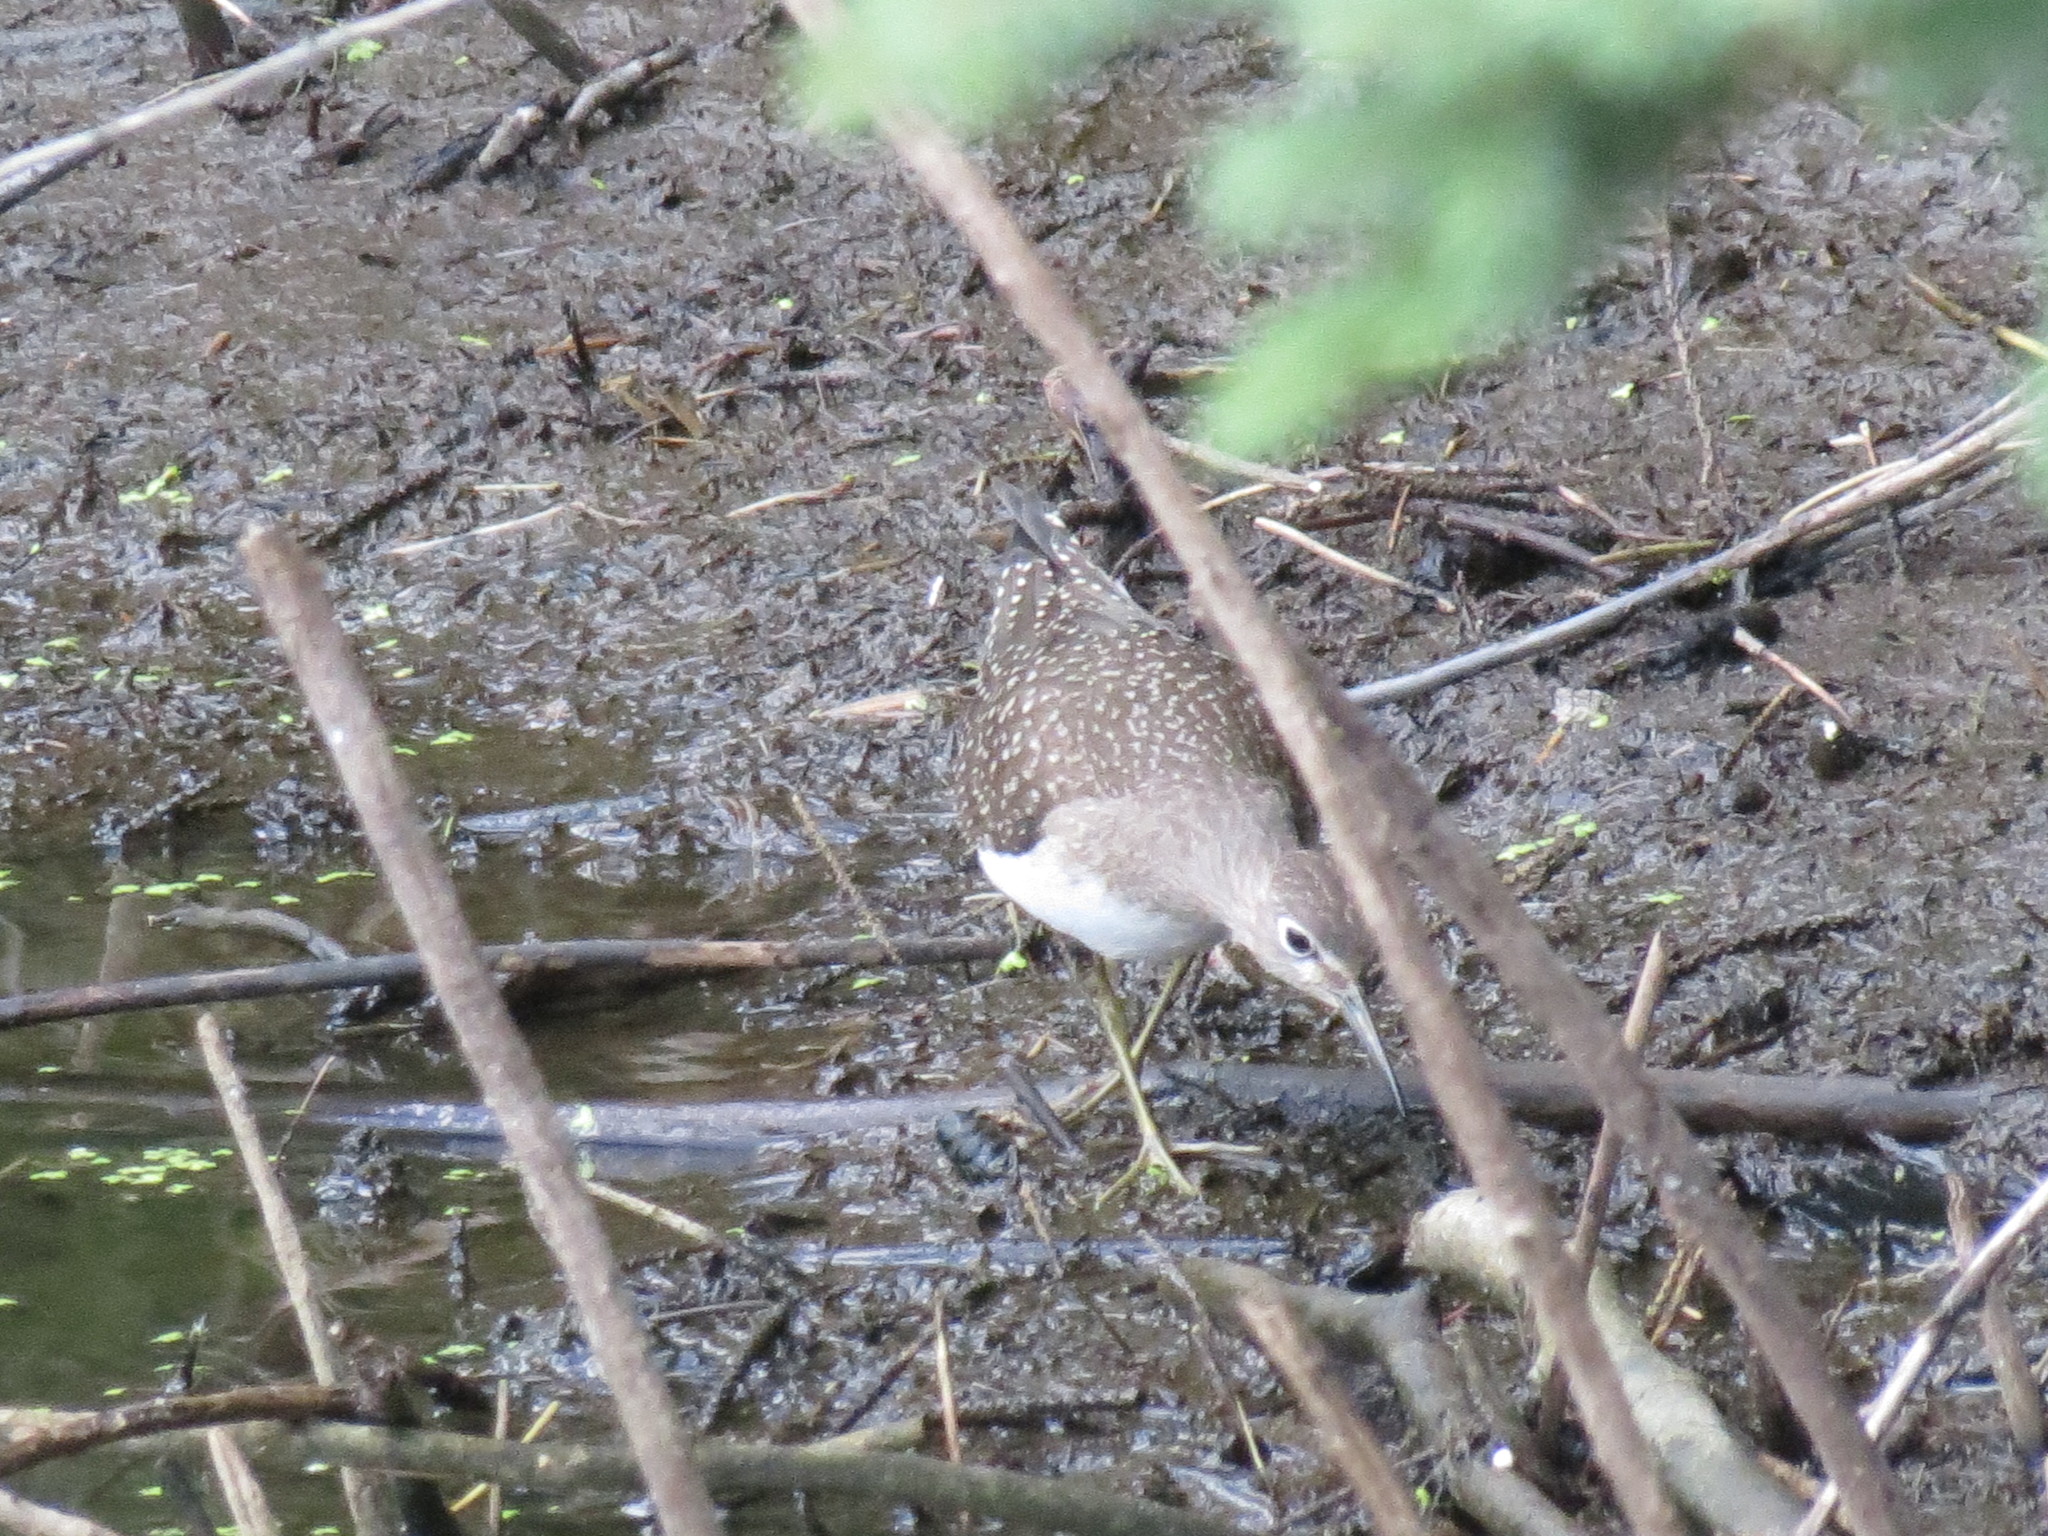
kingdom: Animalia
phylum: Chordata
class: Aves
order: Charadriiformes
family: Scolopacidae
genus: Tringa
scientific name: Tringa solitaria
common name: Solitary sandpiper
